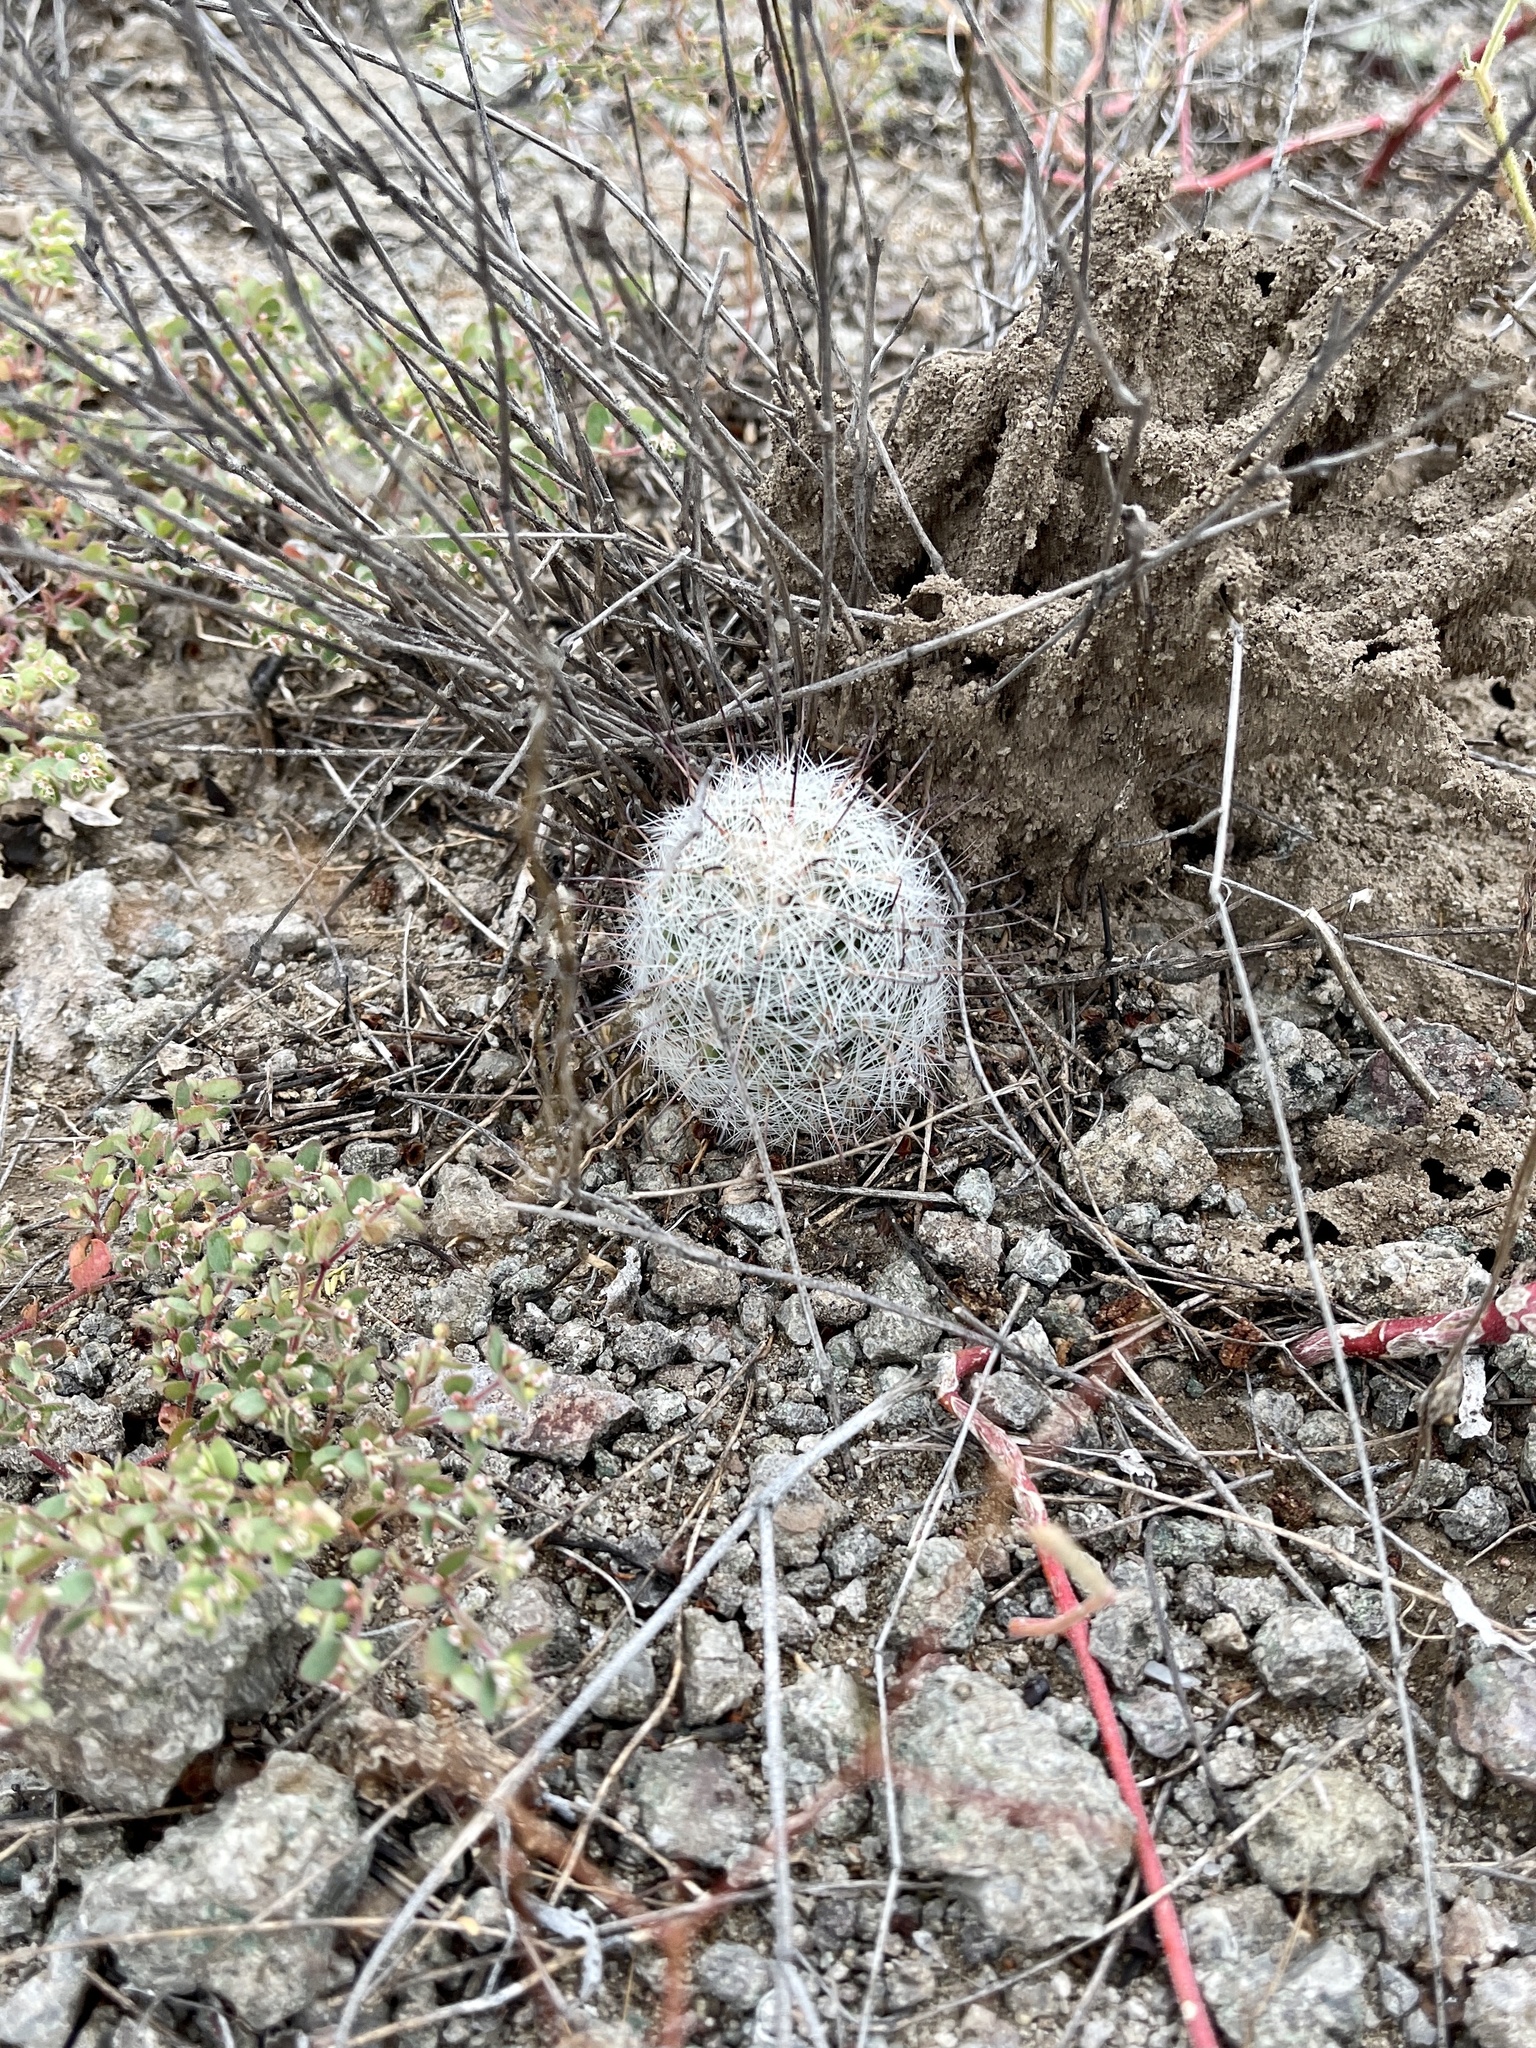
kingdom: Plantae
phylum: Tracheophyta
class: Magnoliopsida
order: Caryophyllales
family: Cactaceae
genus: Cochemiea
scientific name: Cochemiea grahamii
